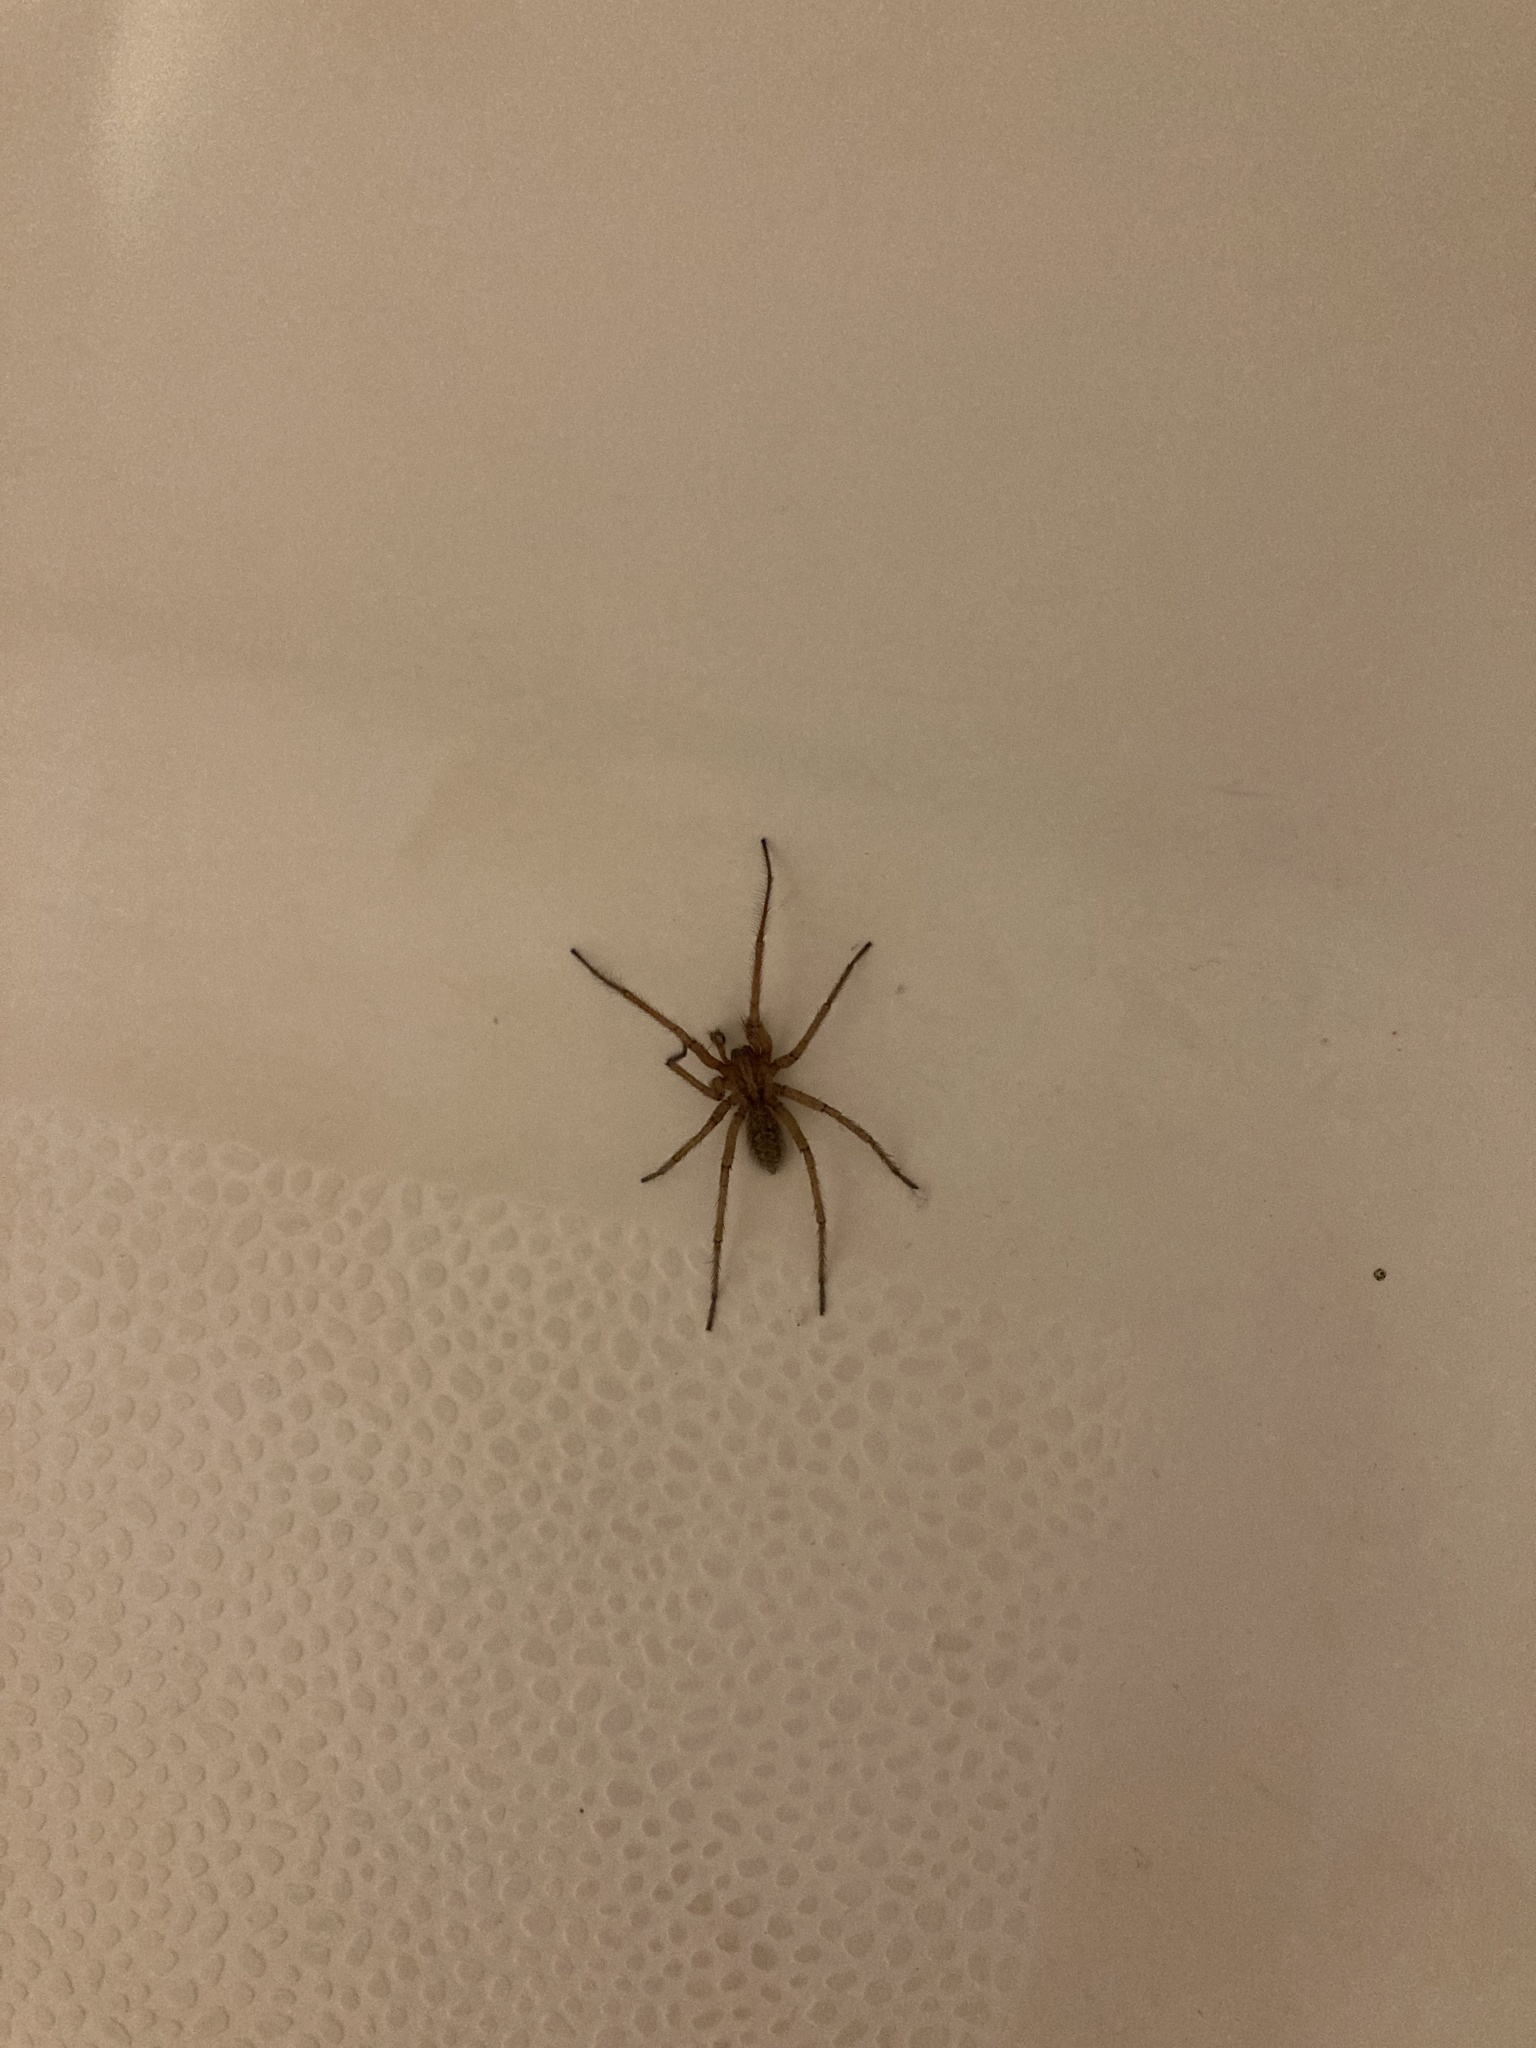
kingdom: Animalia
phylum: Arthropoda
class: Arachnida
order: Araneae
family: Agelenidae
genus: Eratigena
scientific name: Eratigena agrestis
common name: Hobo spider
